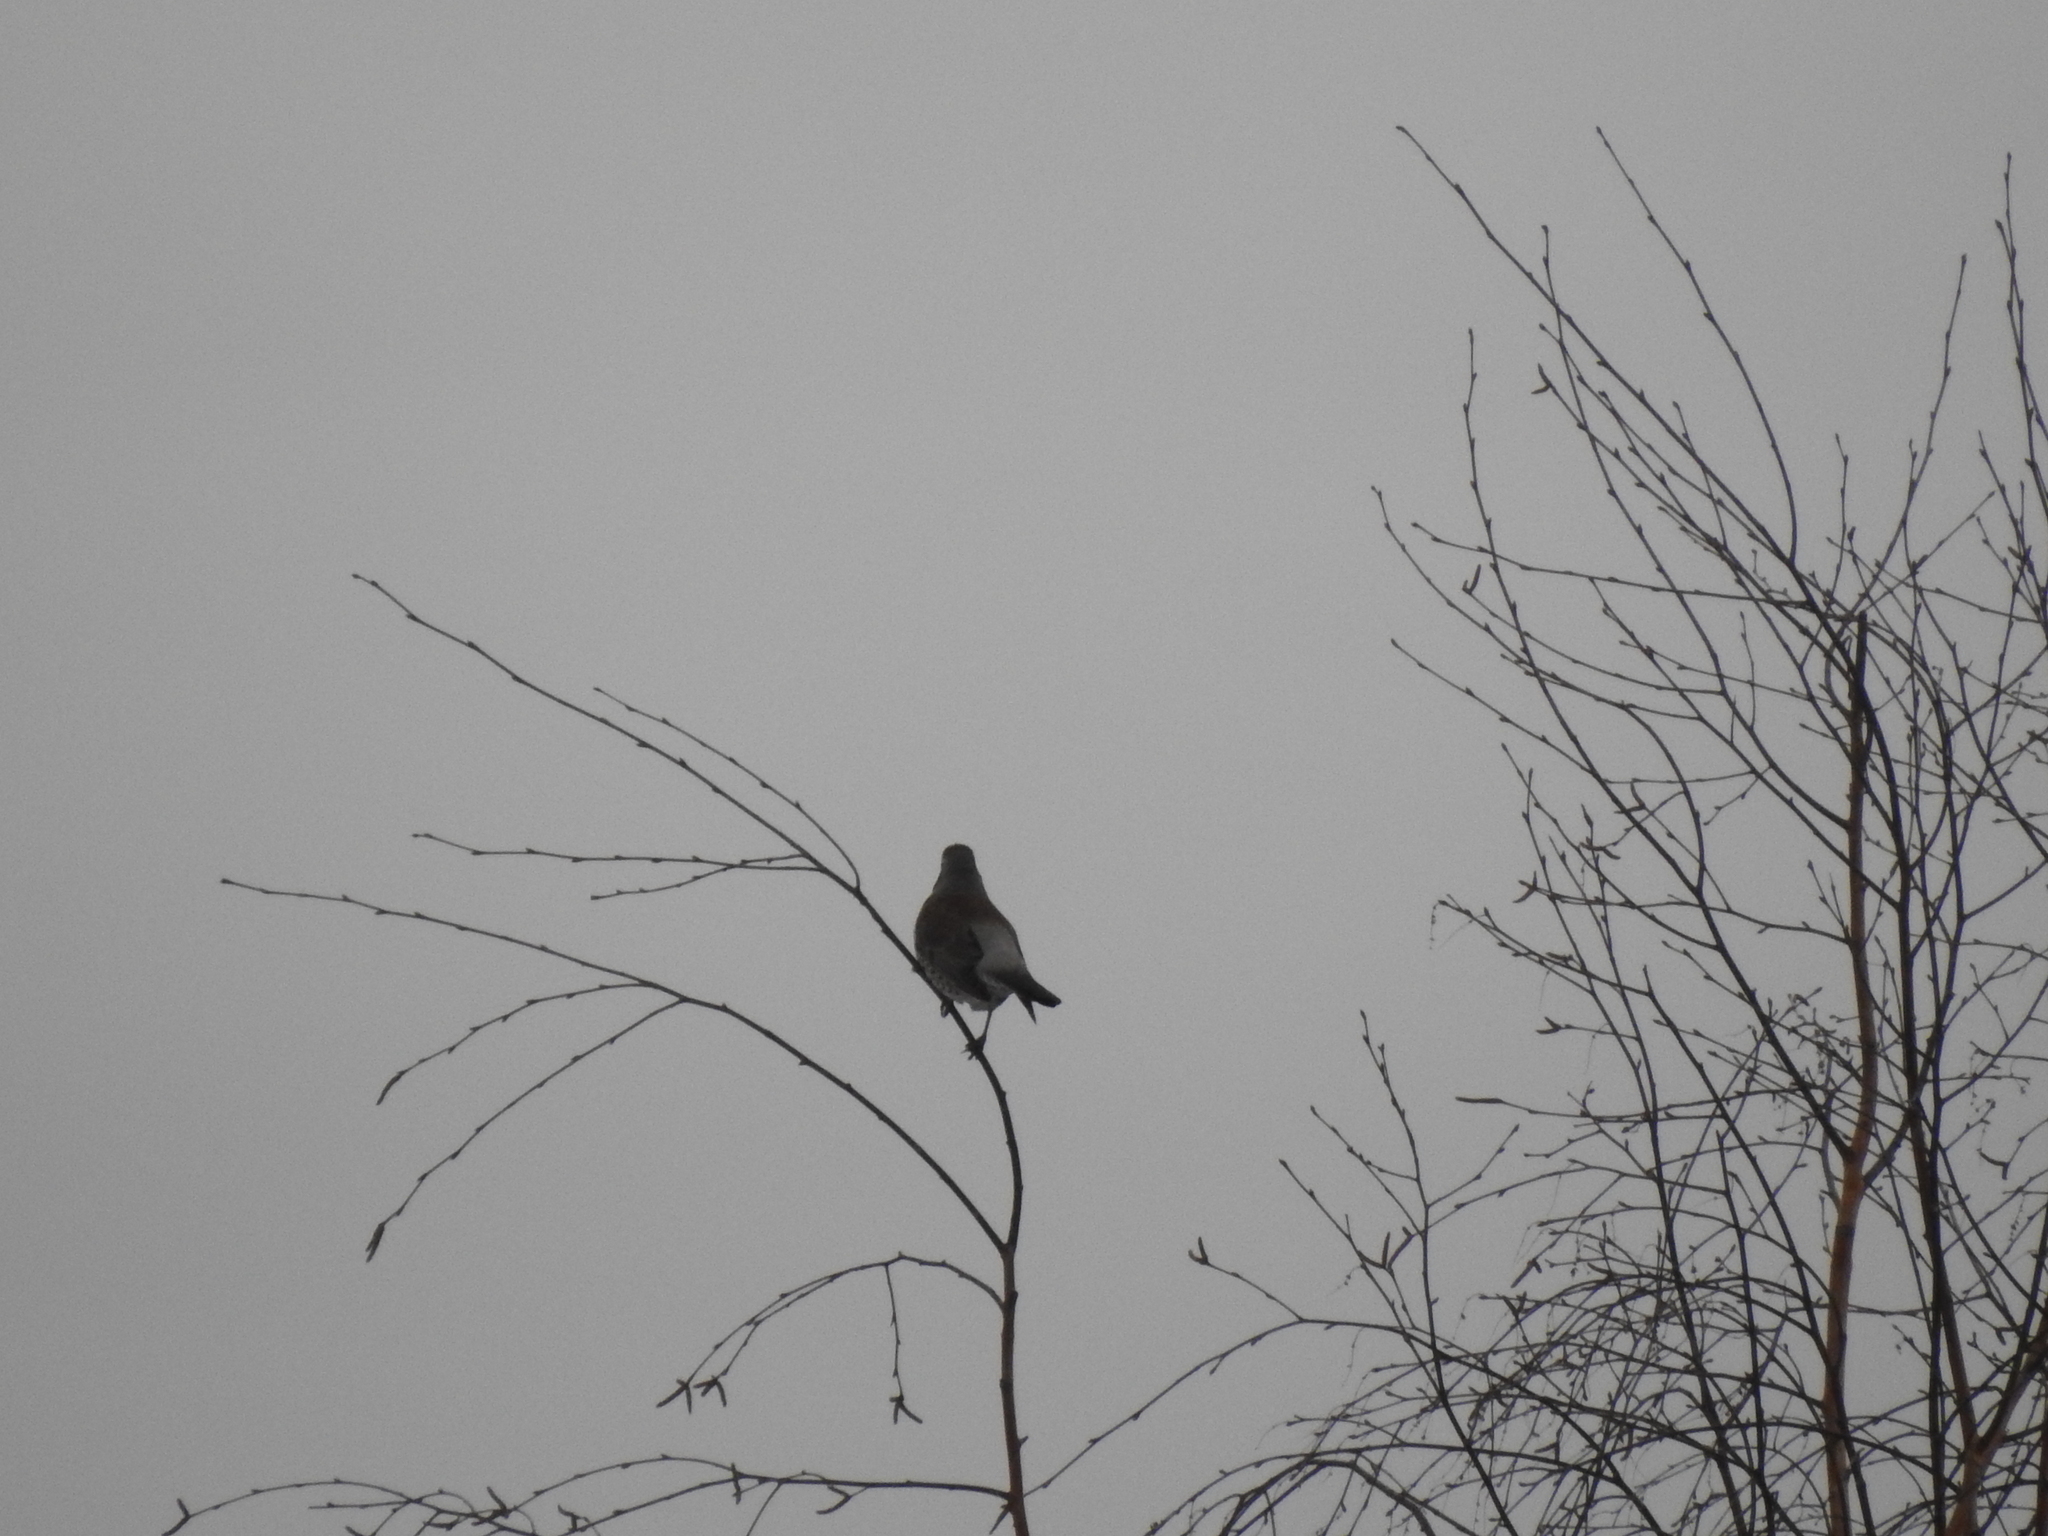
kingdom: Animalia
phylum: Chordata
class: Aves
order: Passeriformes
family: Turdidae
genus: Turdus
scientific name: Turdus pilaris
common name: Fieldfare
